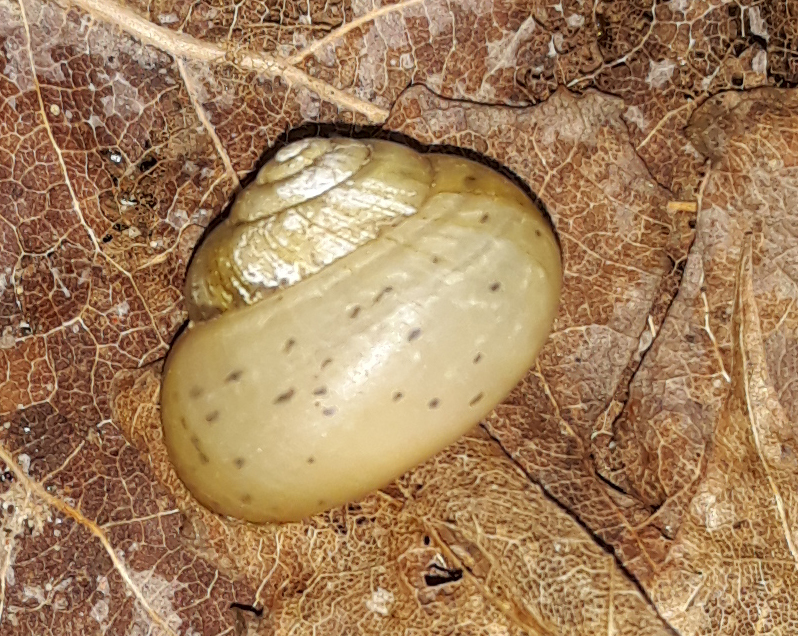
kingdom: Animalia
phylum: Mollusca
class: Gastropoda
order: Stylommatophora
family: Camaenidae
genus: Fruticicola
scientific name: Fruticicola fruticum
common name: Bush snail
